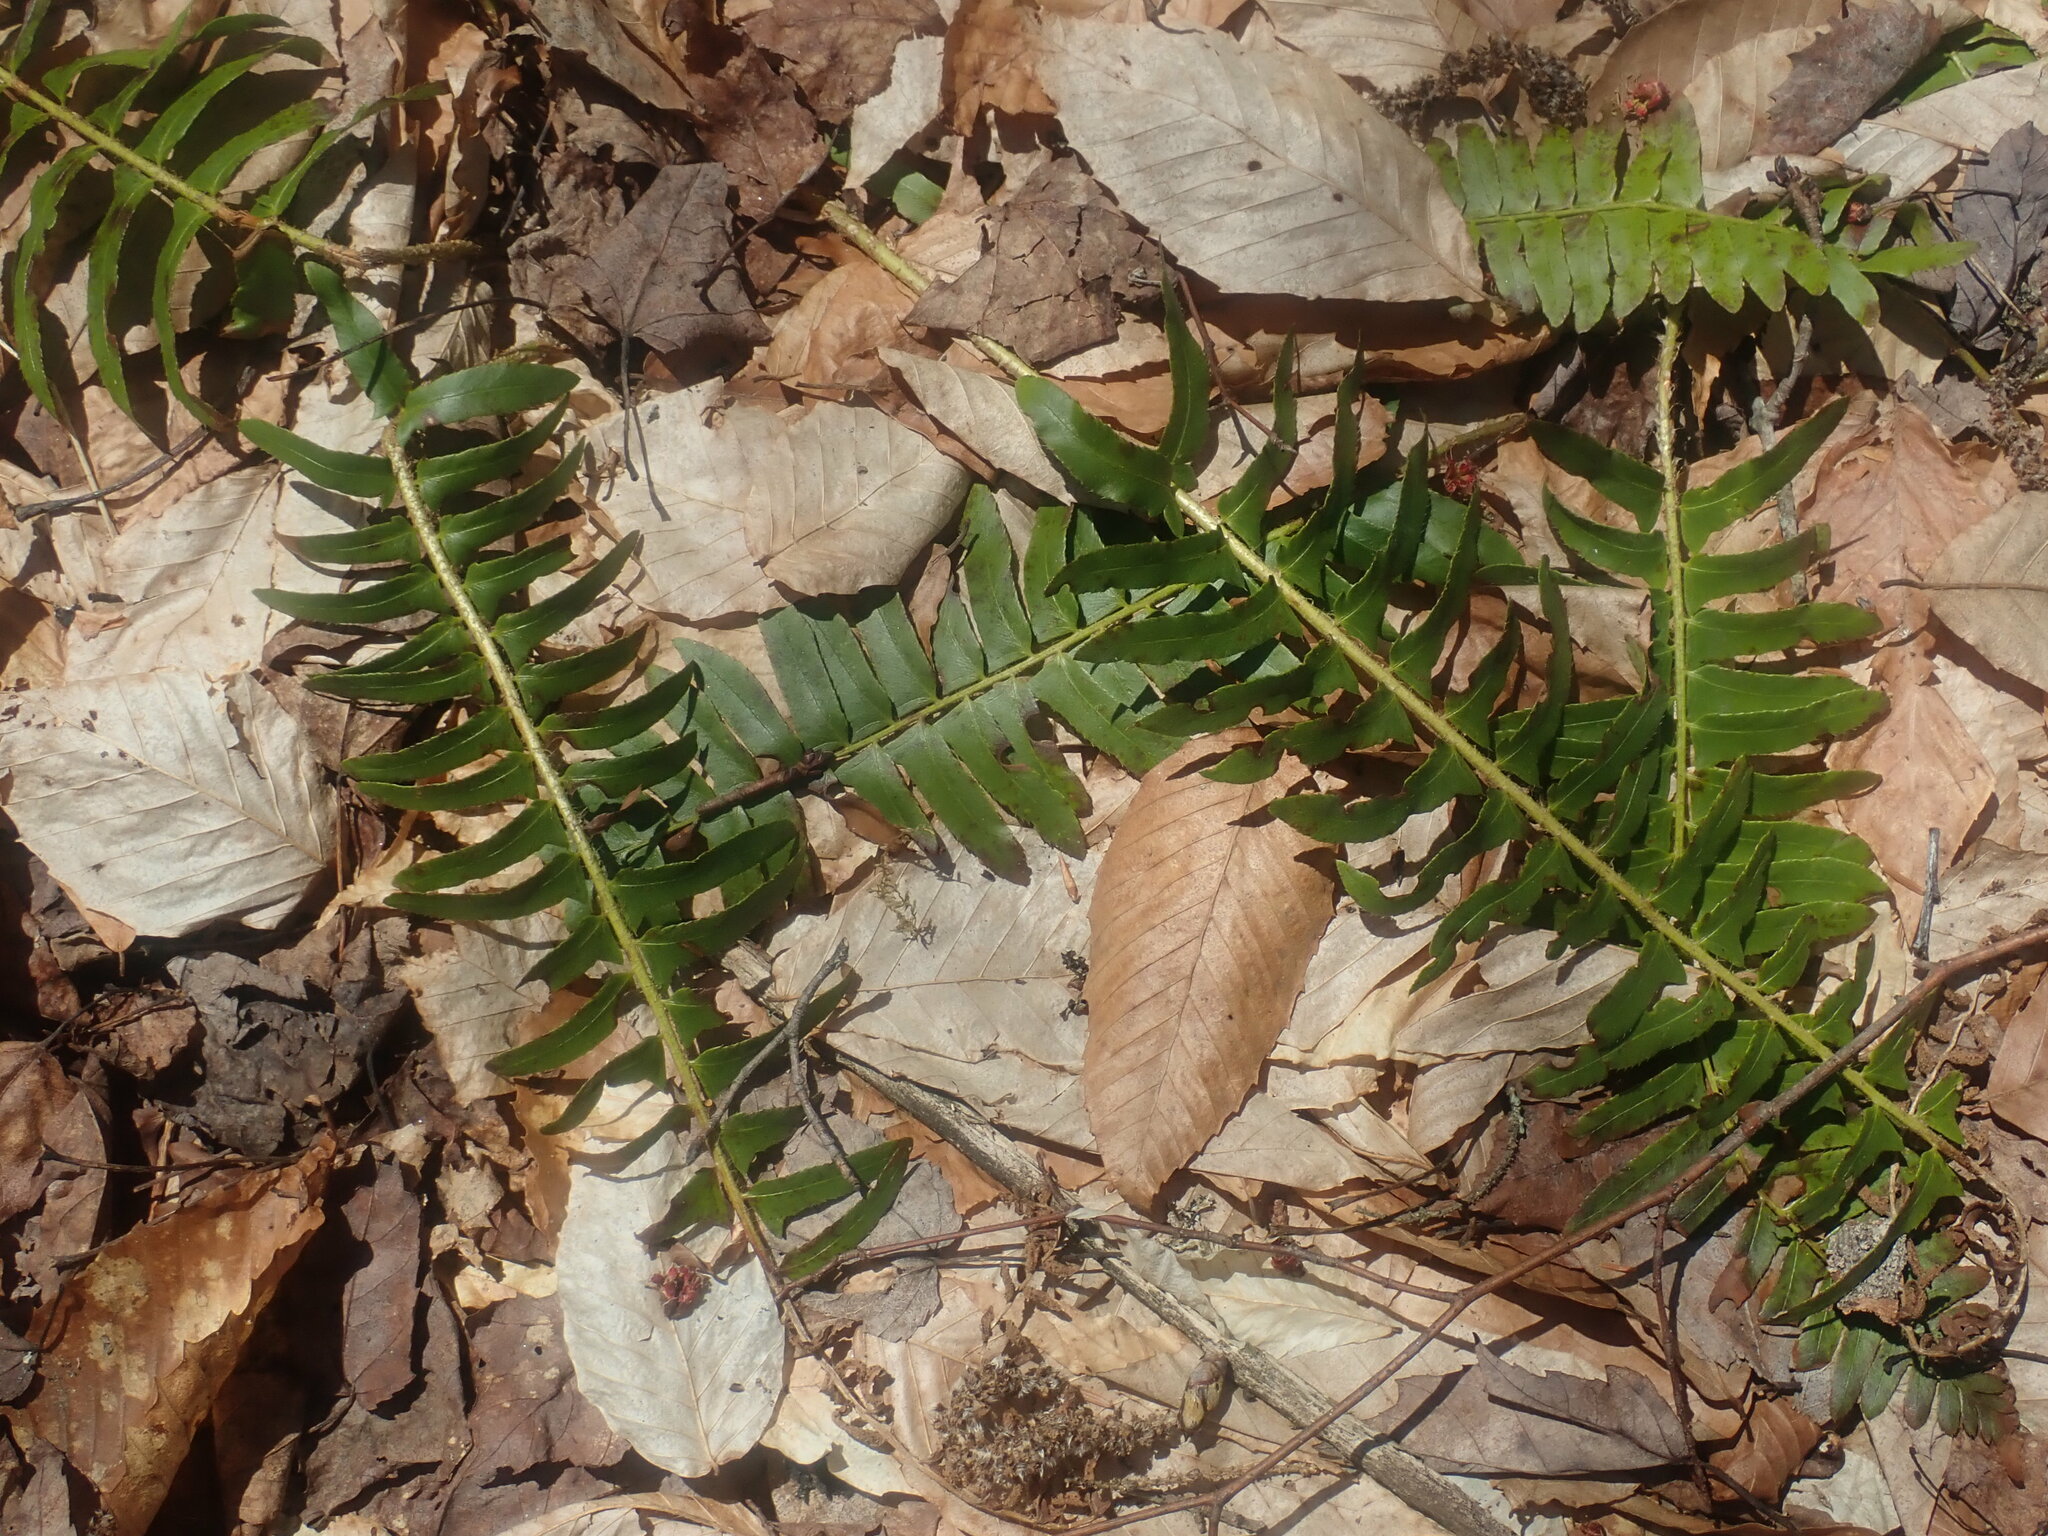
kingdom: Plantae
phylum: Tracheophyta
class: Polypodiopsida
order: Polypodiales
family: Dryopteridaceae
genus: Polystichum
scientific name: Polystichum acrostichoides
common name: Christmas fern
